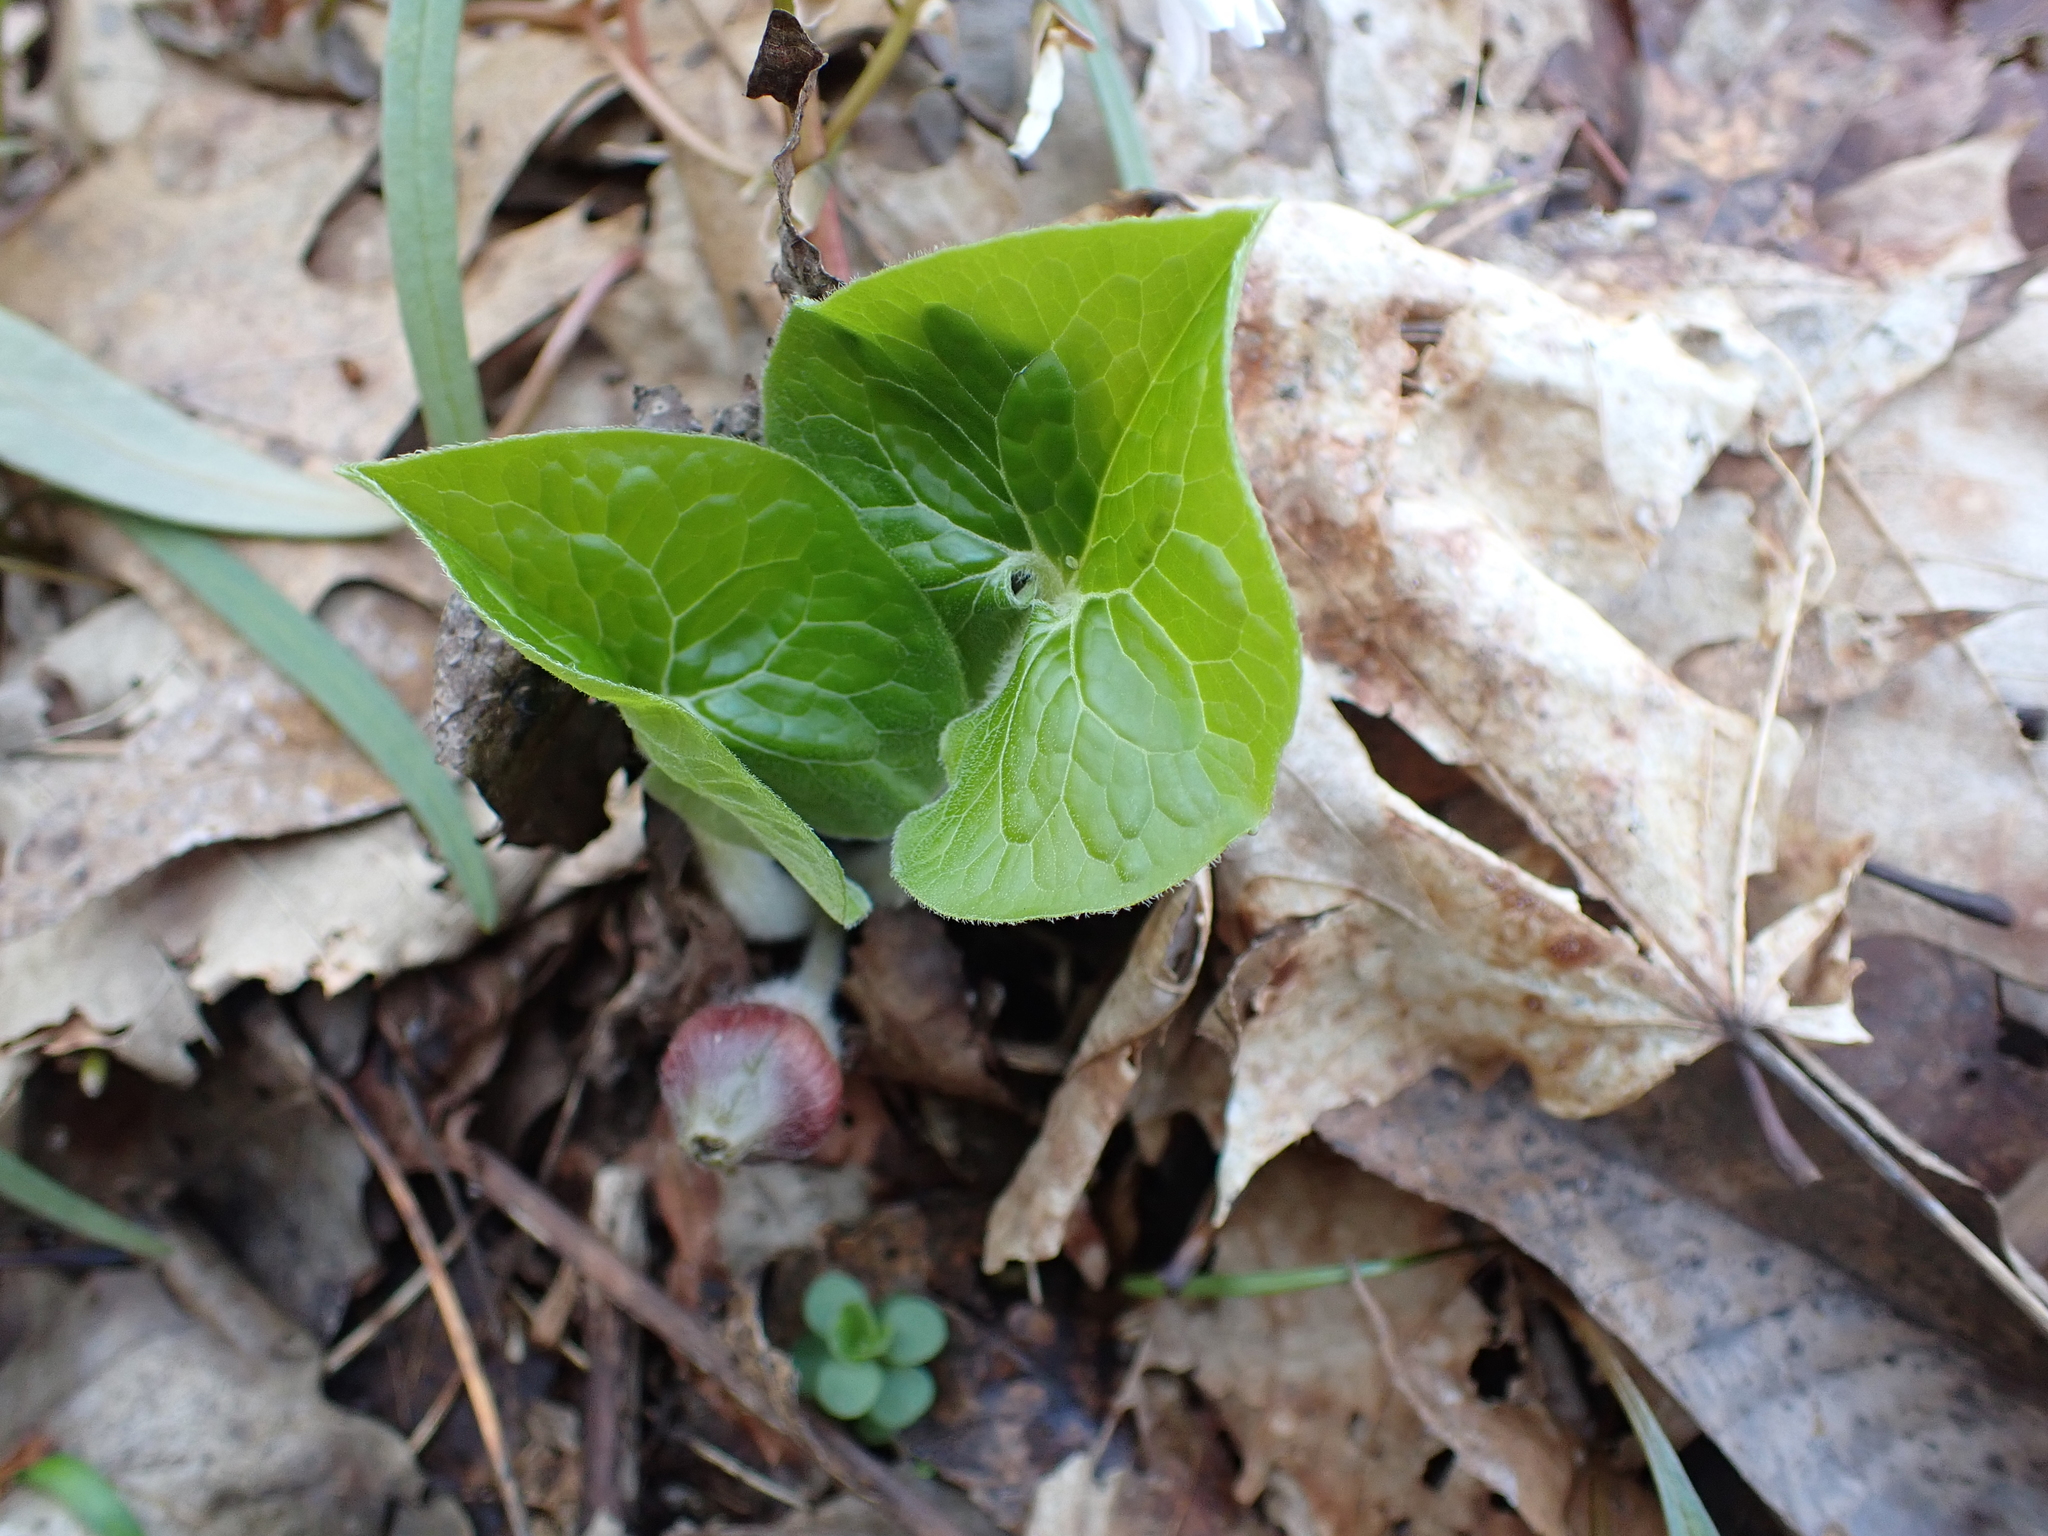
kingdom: Plantae
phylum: Tracheophyta
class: Magnoliopsida
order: Piperales
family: Aristolochiaceae
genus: Asarum
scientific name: Asarum canadense
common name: Wild ginger
